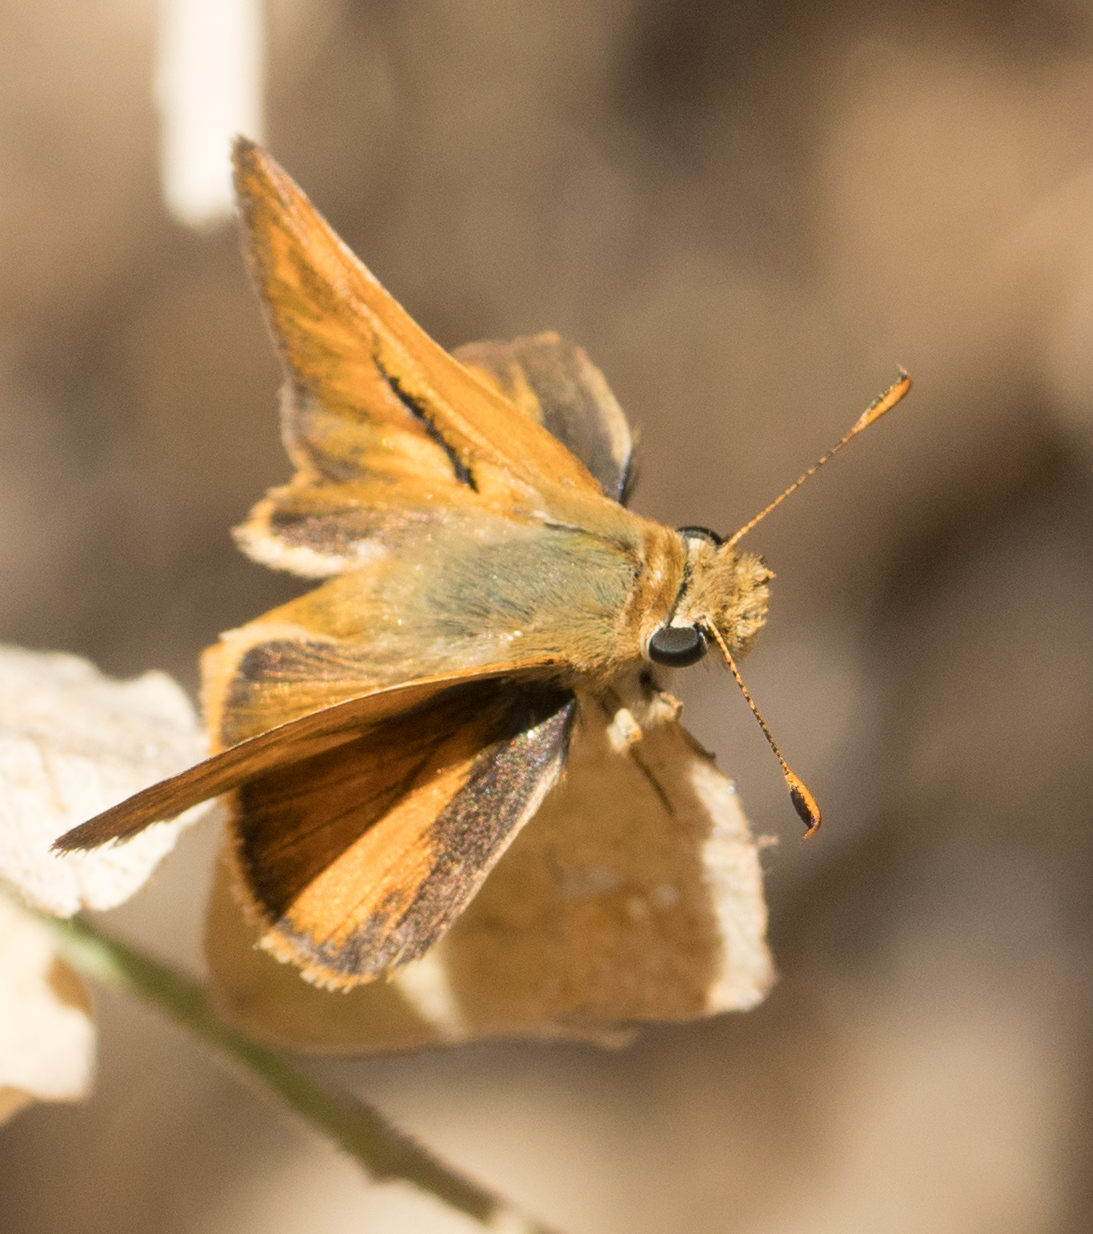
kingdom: Animalia
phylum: Arthropoda
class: Insecta
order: Lepidoptera
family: Hesperiidae
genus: Ochlodes
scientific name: Ochlodes sylvanoides
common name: Woodland skipper
